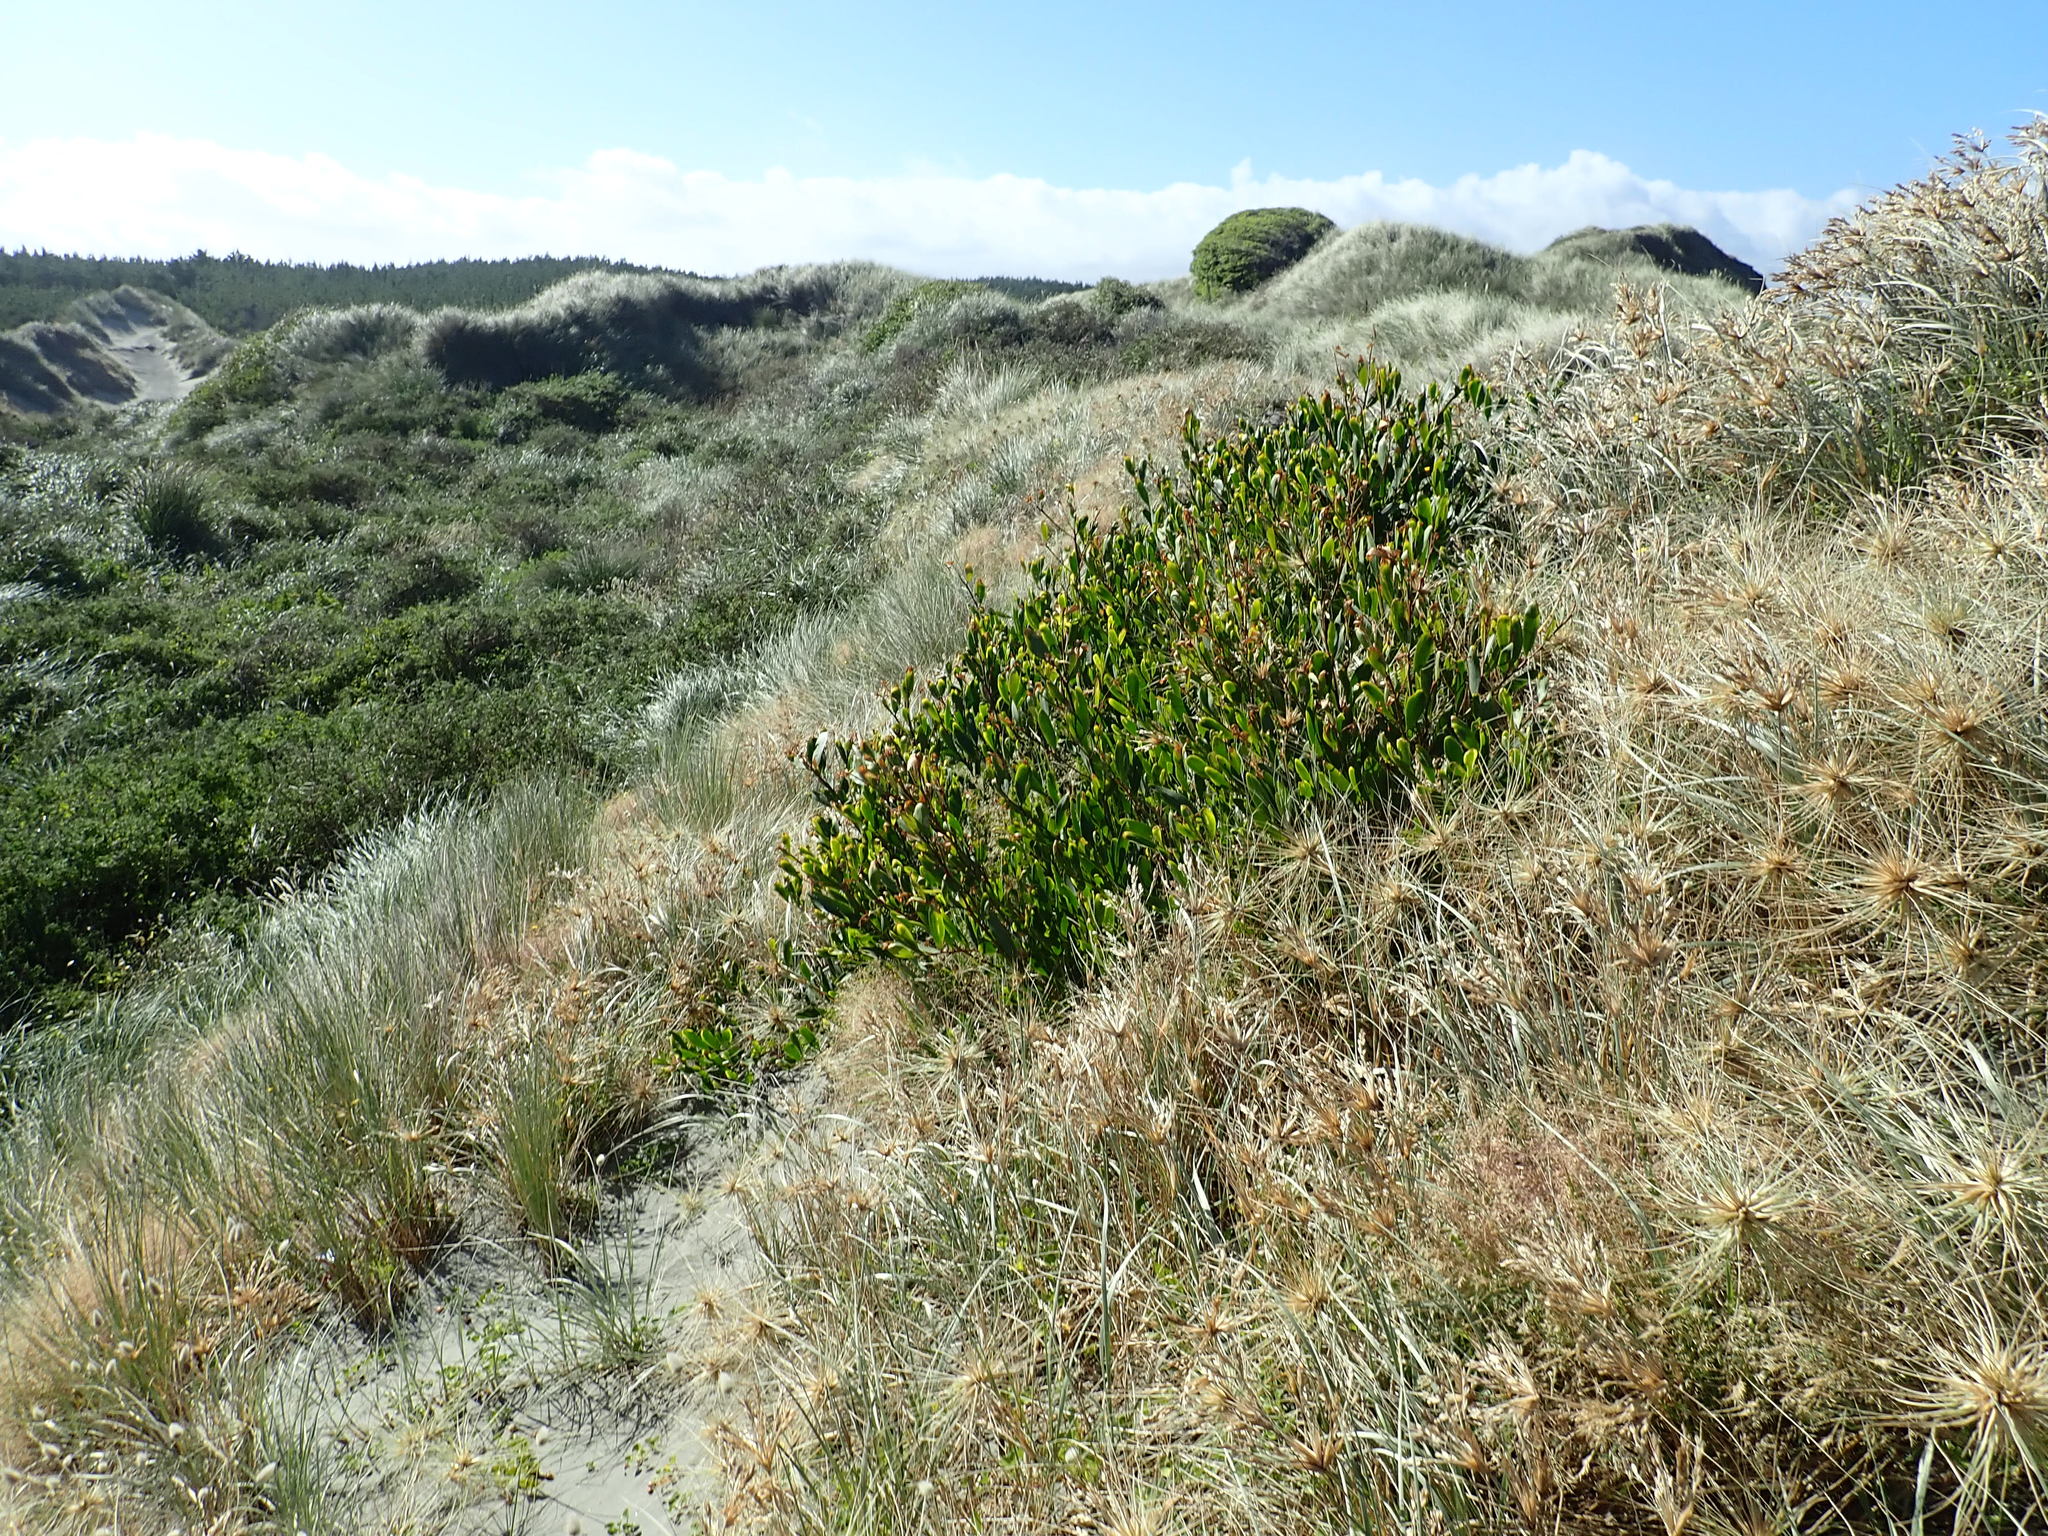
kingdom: Plantae
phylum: Tracheophyta
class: Magnoliopsida
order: Fabales
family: Fabaceae
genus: Acacia
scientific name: Acacia longifolia
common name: Sydney golden wattle
